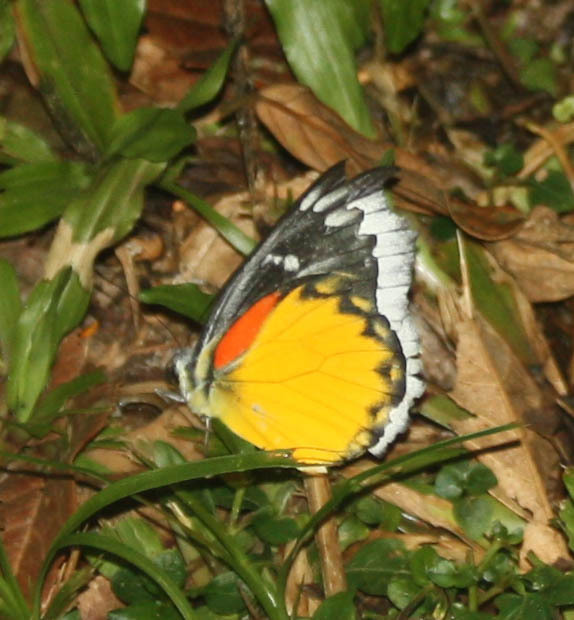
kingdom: Animalia
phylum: Arthropoda
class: Insecta
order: Lepidoptera
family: Pieridae
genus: Delias
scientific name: Delias descombesi
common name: Red-spot jezebel
